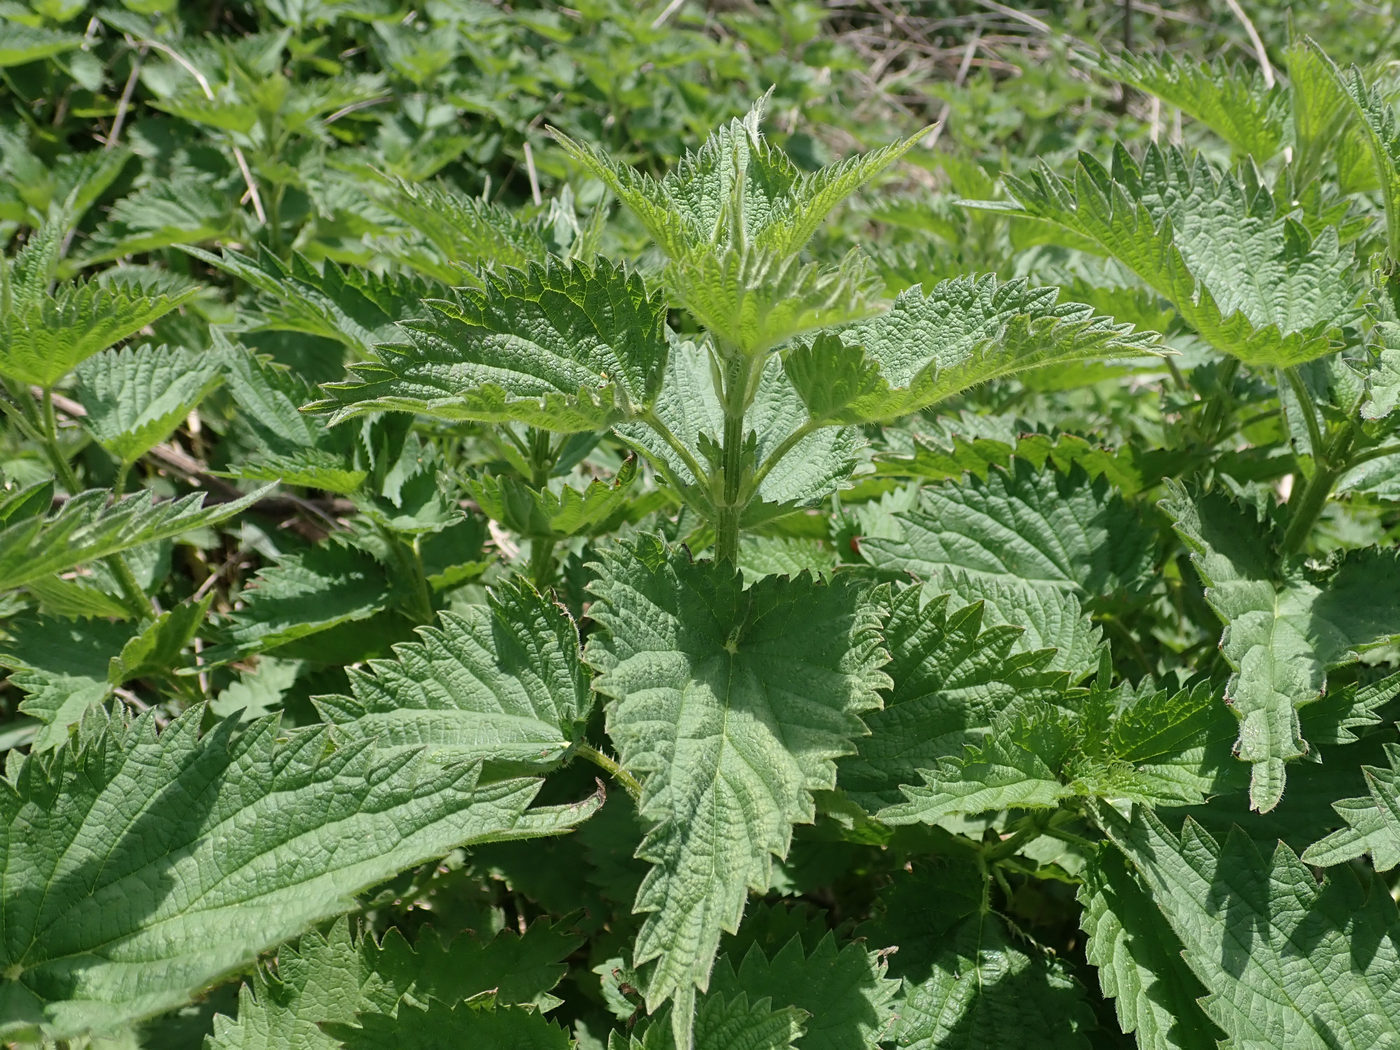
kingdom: Plantae
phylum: Tracheophyta
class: Magnoliopsida
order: Rosales
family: Urticaceae
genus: Urtica
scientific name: Urtica dioica
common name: Common nettle
